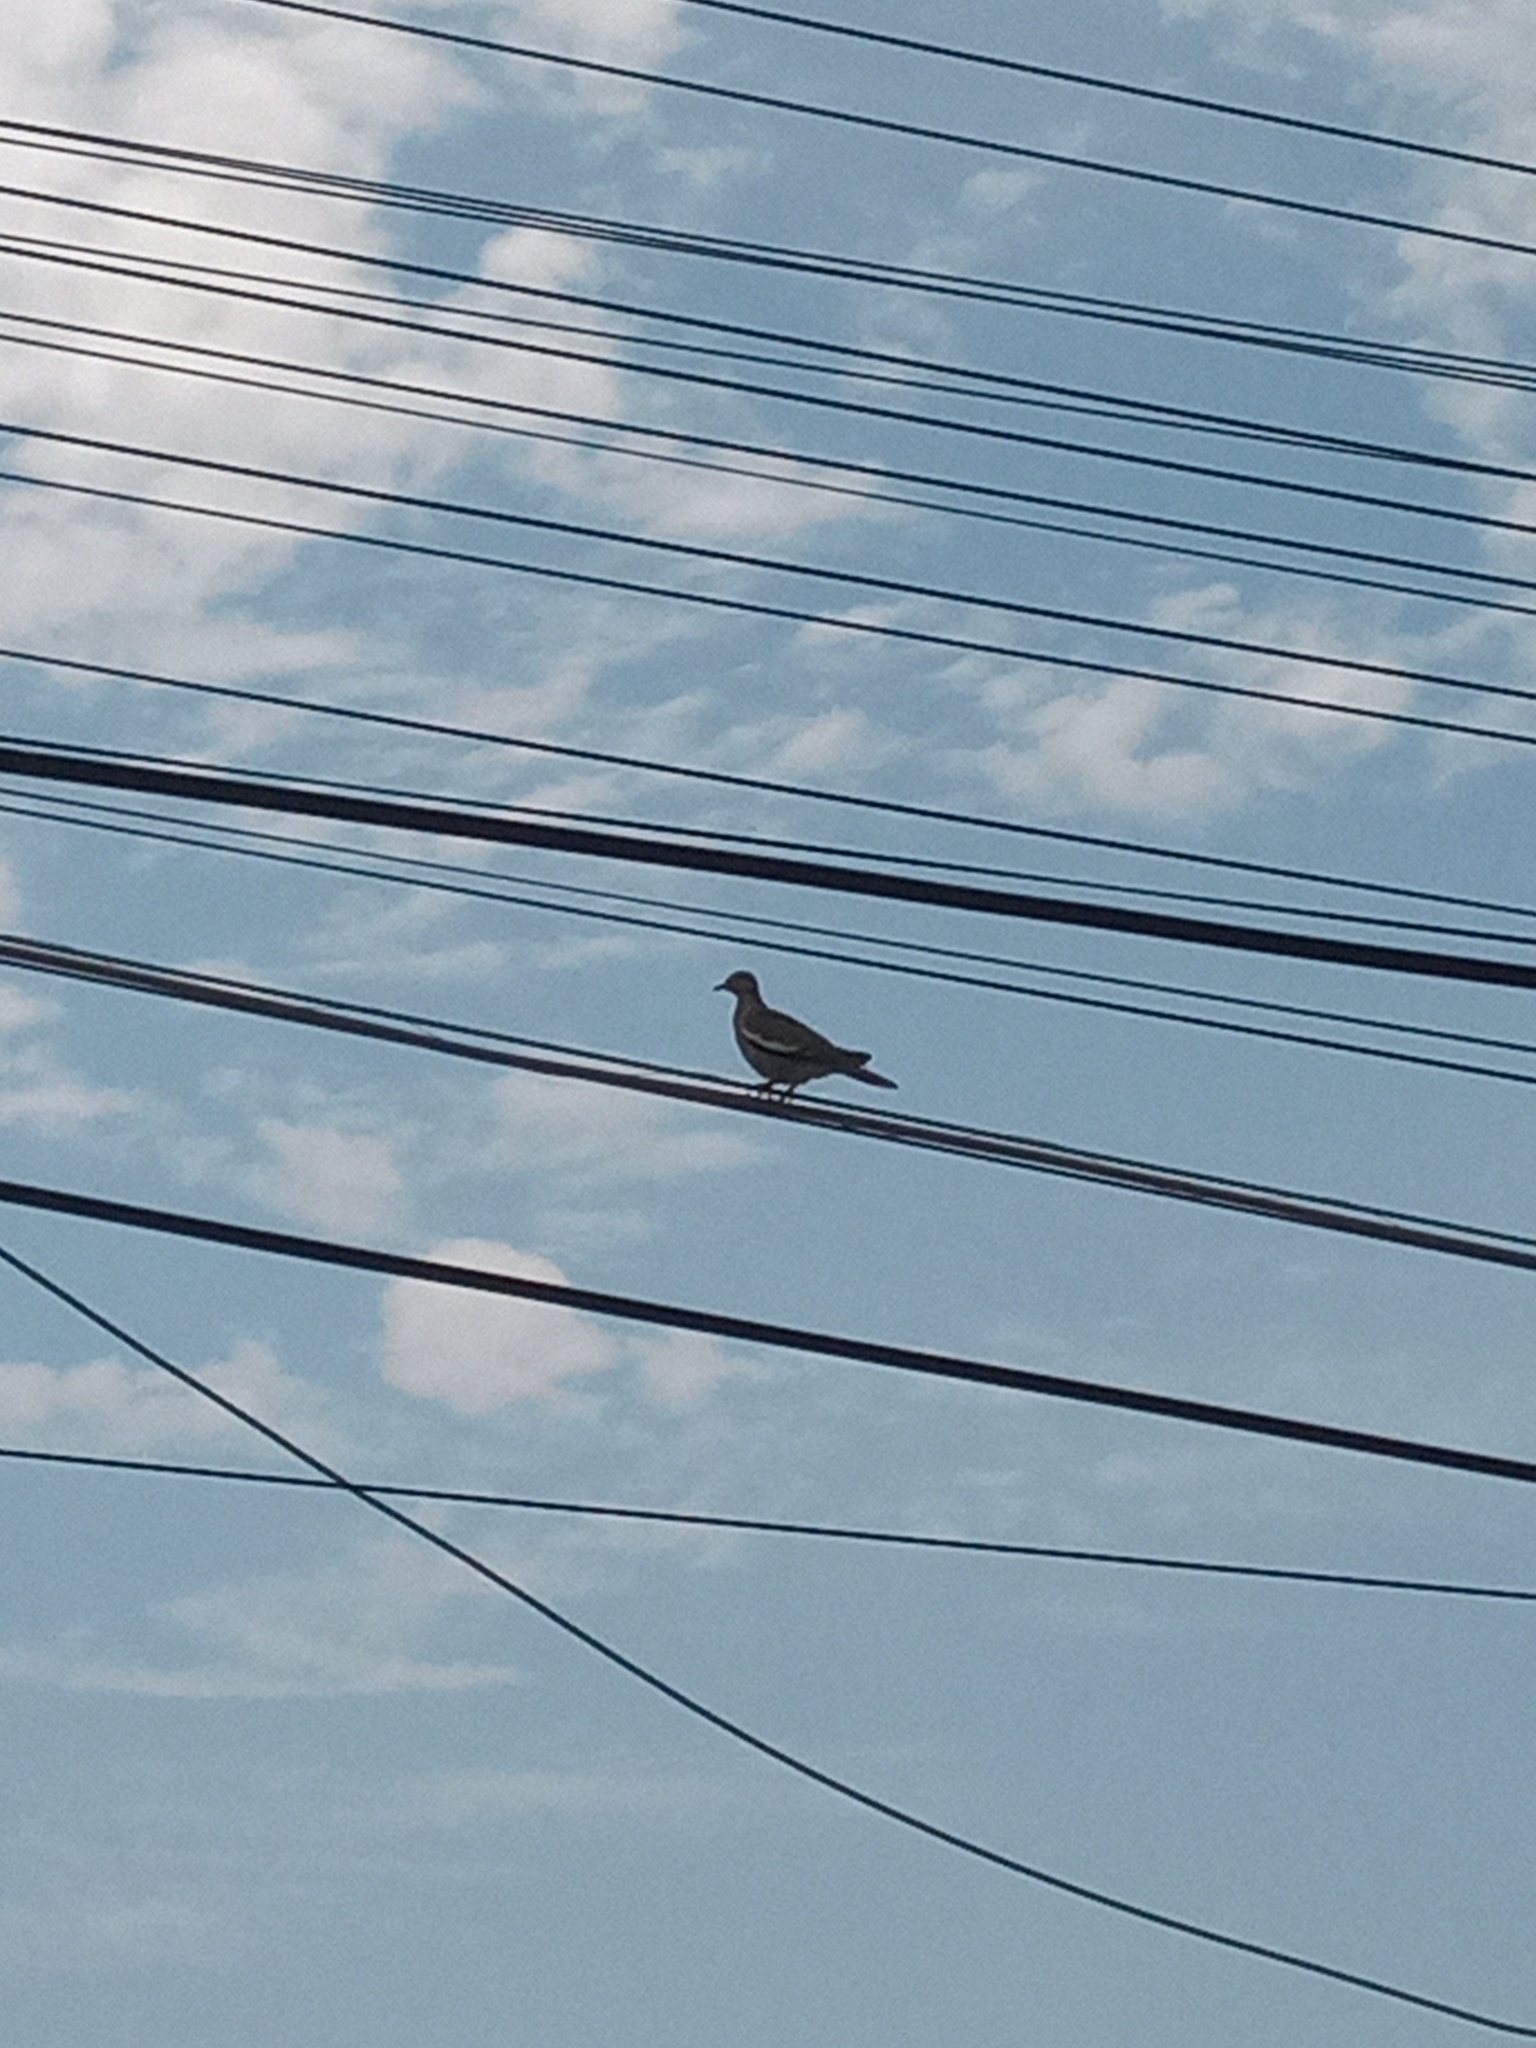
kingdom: Animalia
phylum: Chordata
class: Aves
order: Columbiformes
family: Columbidae
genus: Zenaida
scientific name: Zenaida asiatica
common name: White-winged dove
